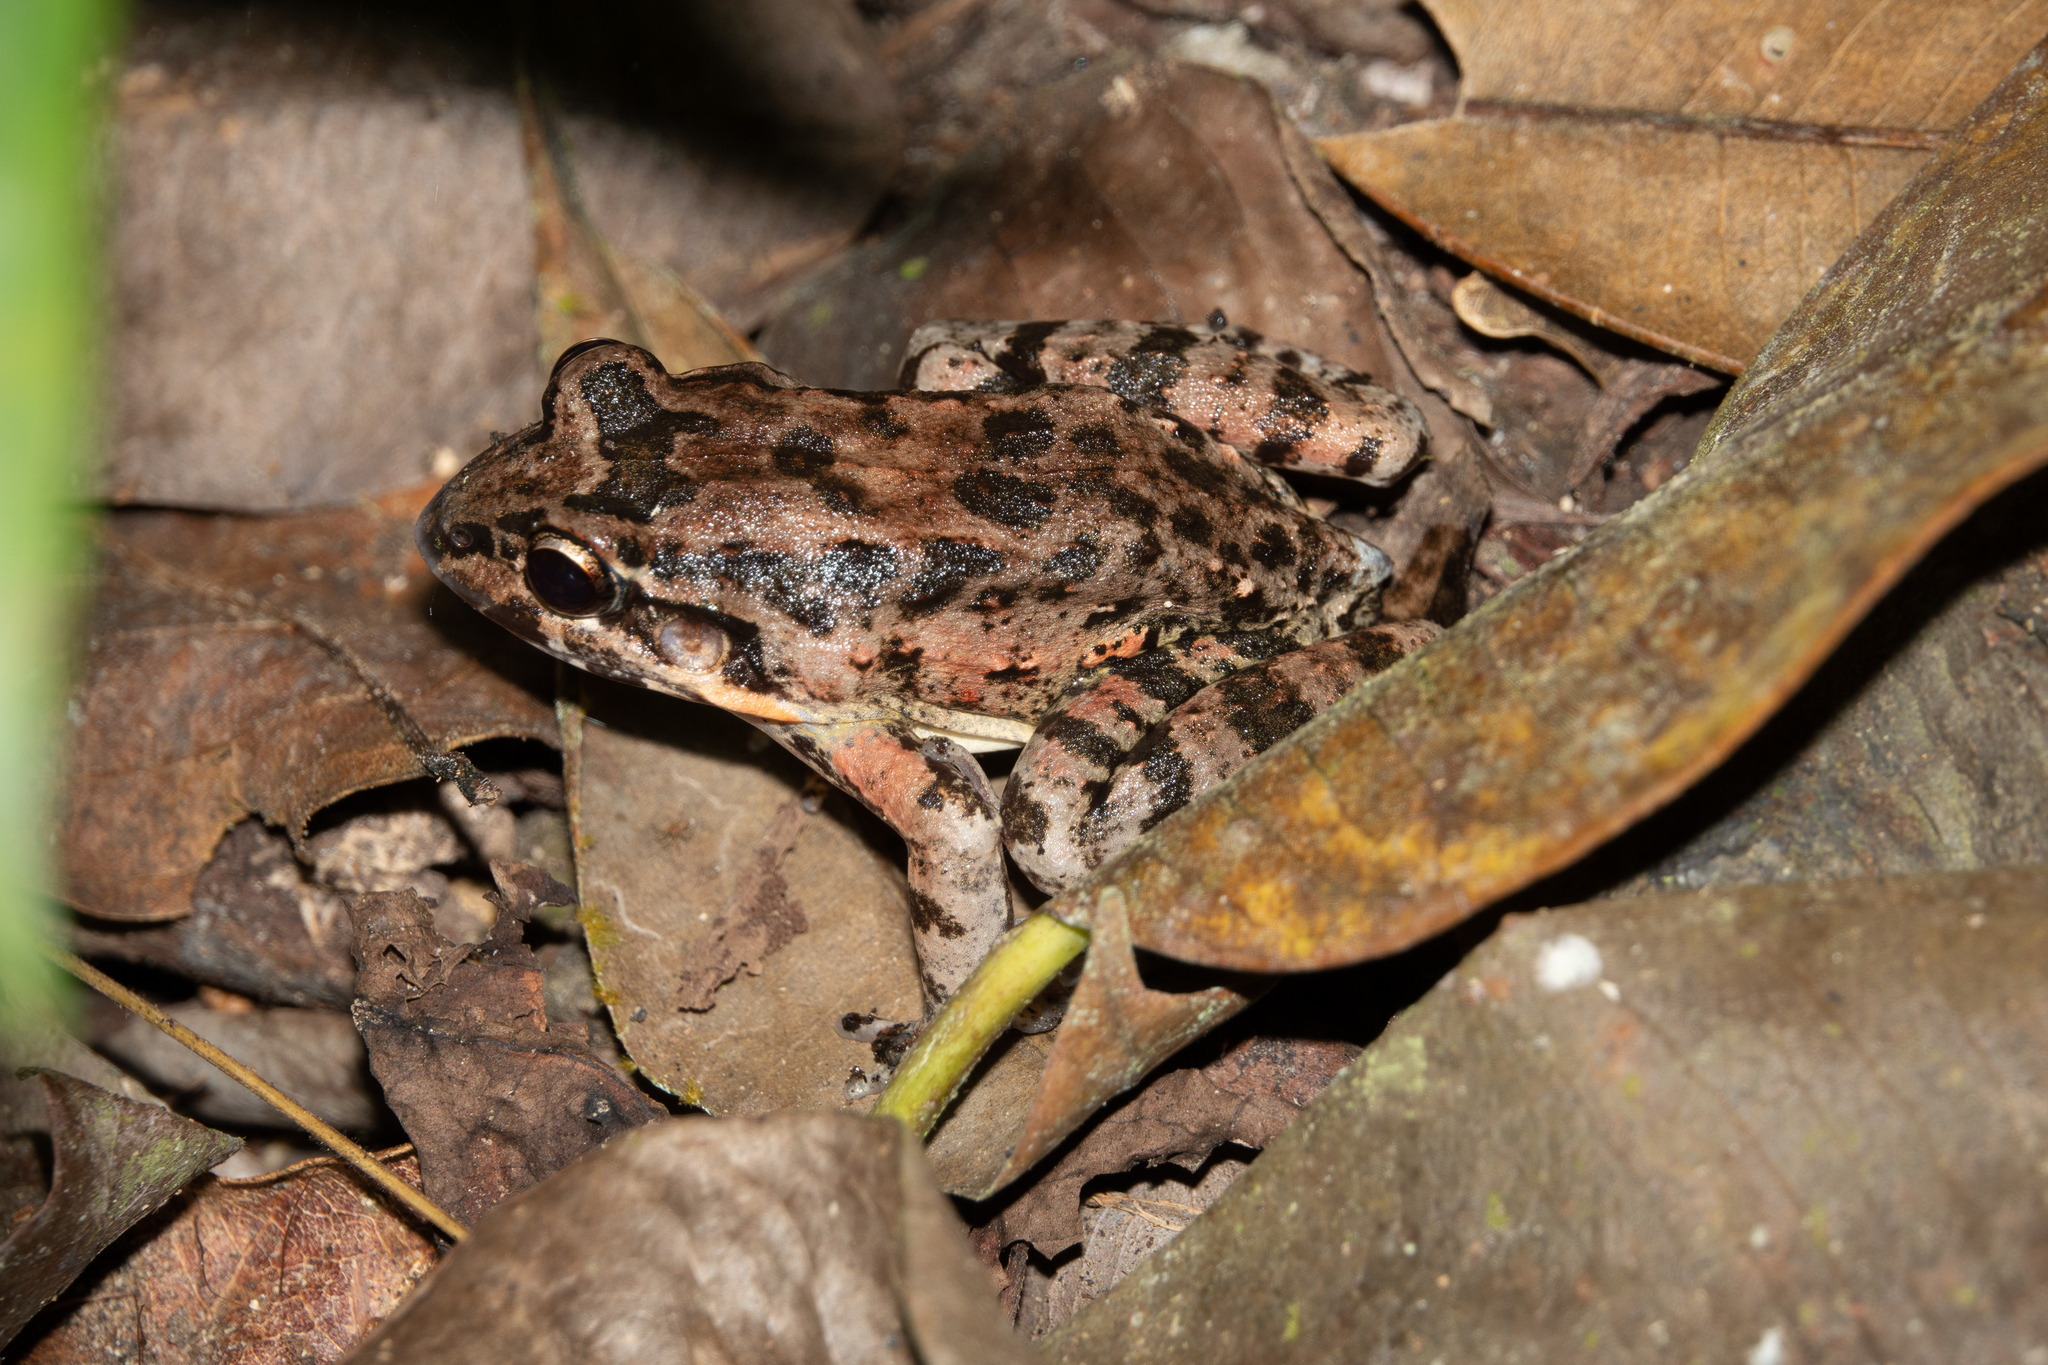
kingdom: Animalia
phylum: Chordata
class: Amphibia
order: Anura
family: Leptodactylidae
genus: Leptodactylus
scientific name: Leptodactylus ventrimaculatus
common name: Bulun white-lipped frog
